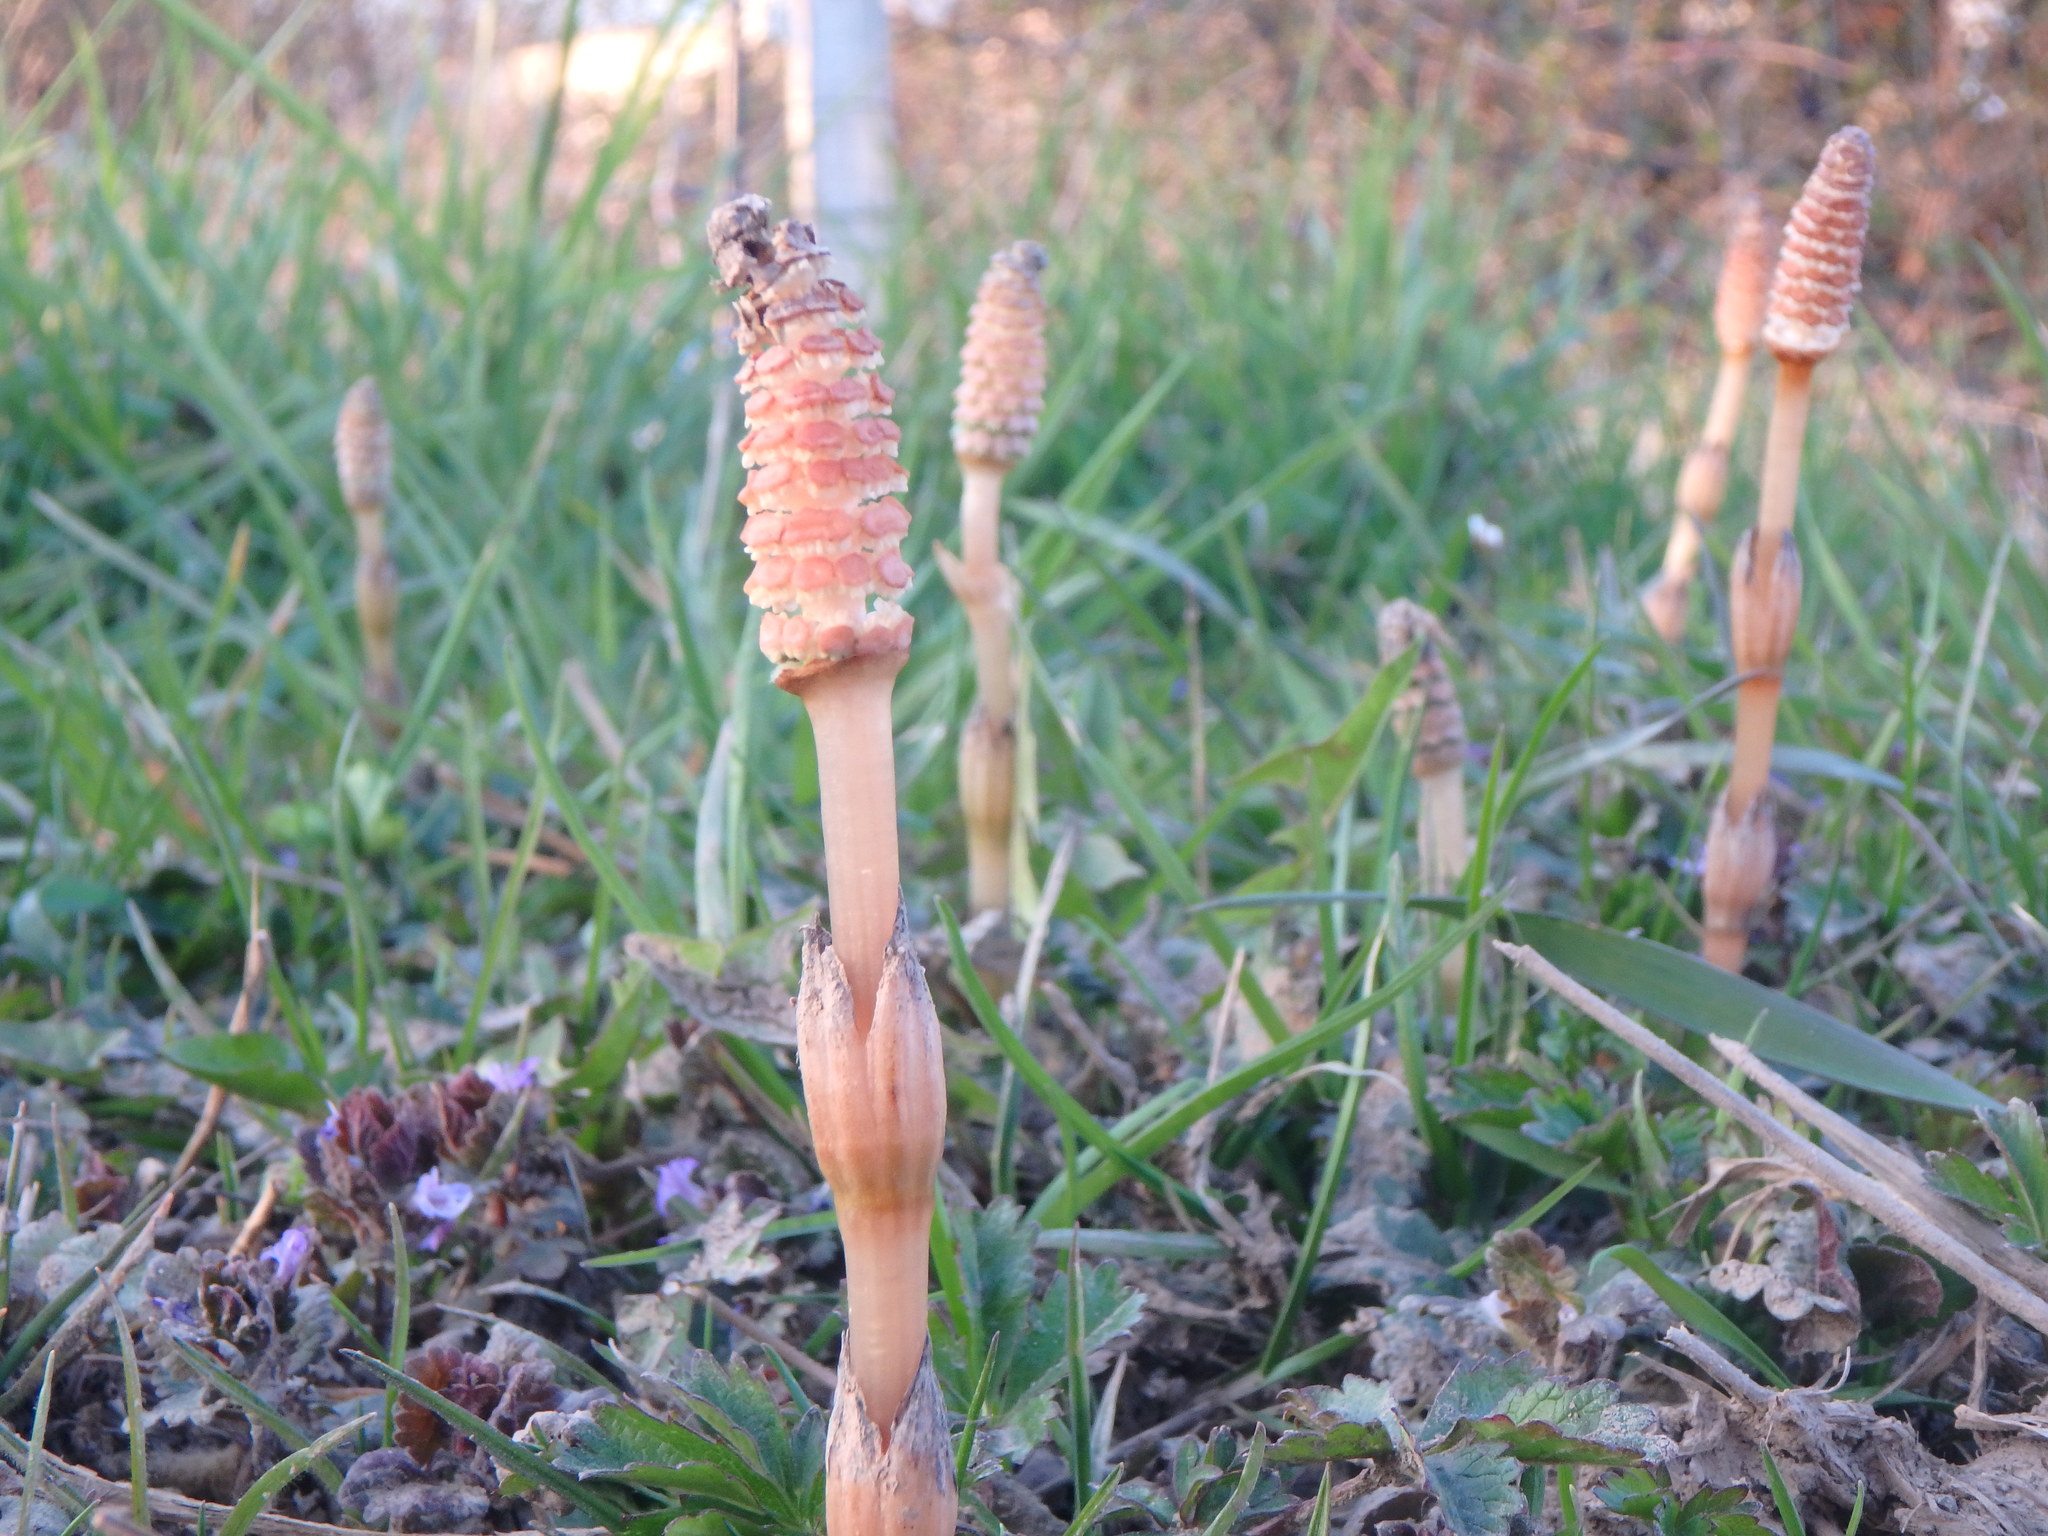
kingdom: Plantae
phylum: Tracheophyta
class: Polypodiopsida
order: Equisetales
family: Equisetaceae
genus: Equisetum
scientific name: Equisetum arvense
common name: Field horsetail
